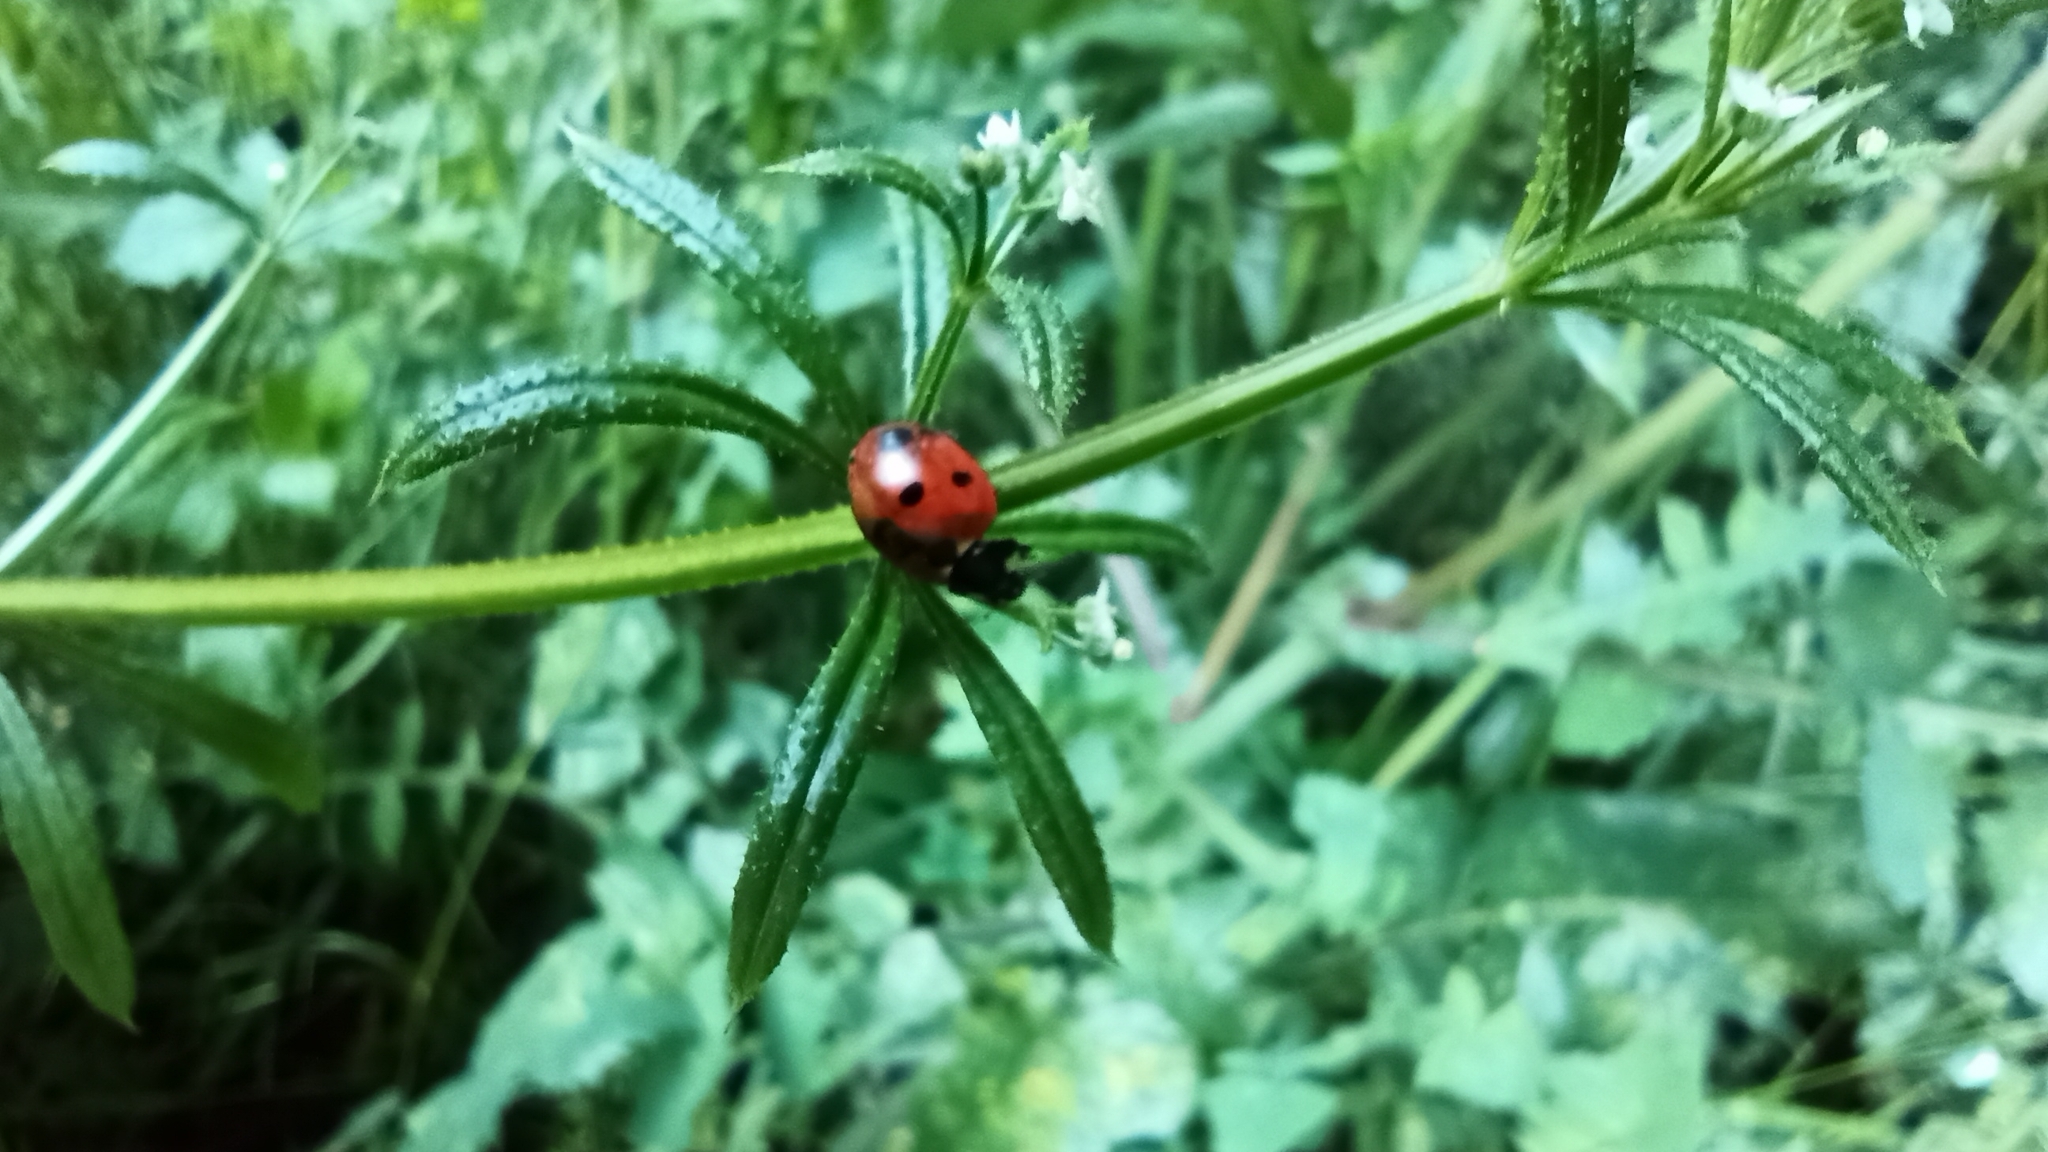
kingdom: Animalia
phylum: Arthropoda
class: Insecta
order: Coleoptera
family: Coccinellidae
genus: Coccinella
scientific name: Coccinella septempunctata
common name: Sevenspotted lady beetle
